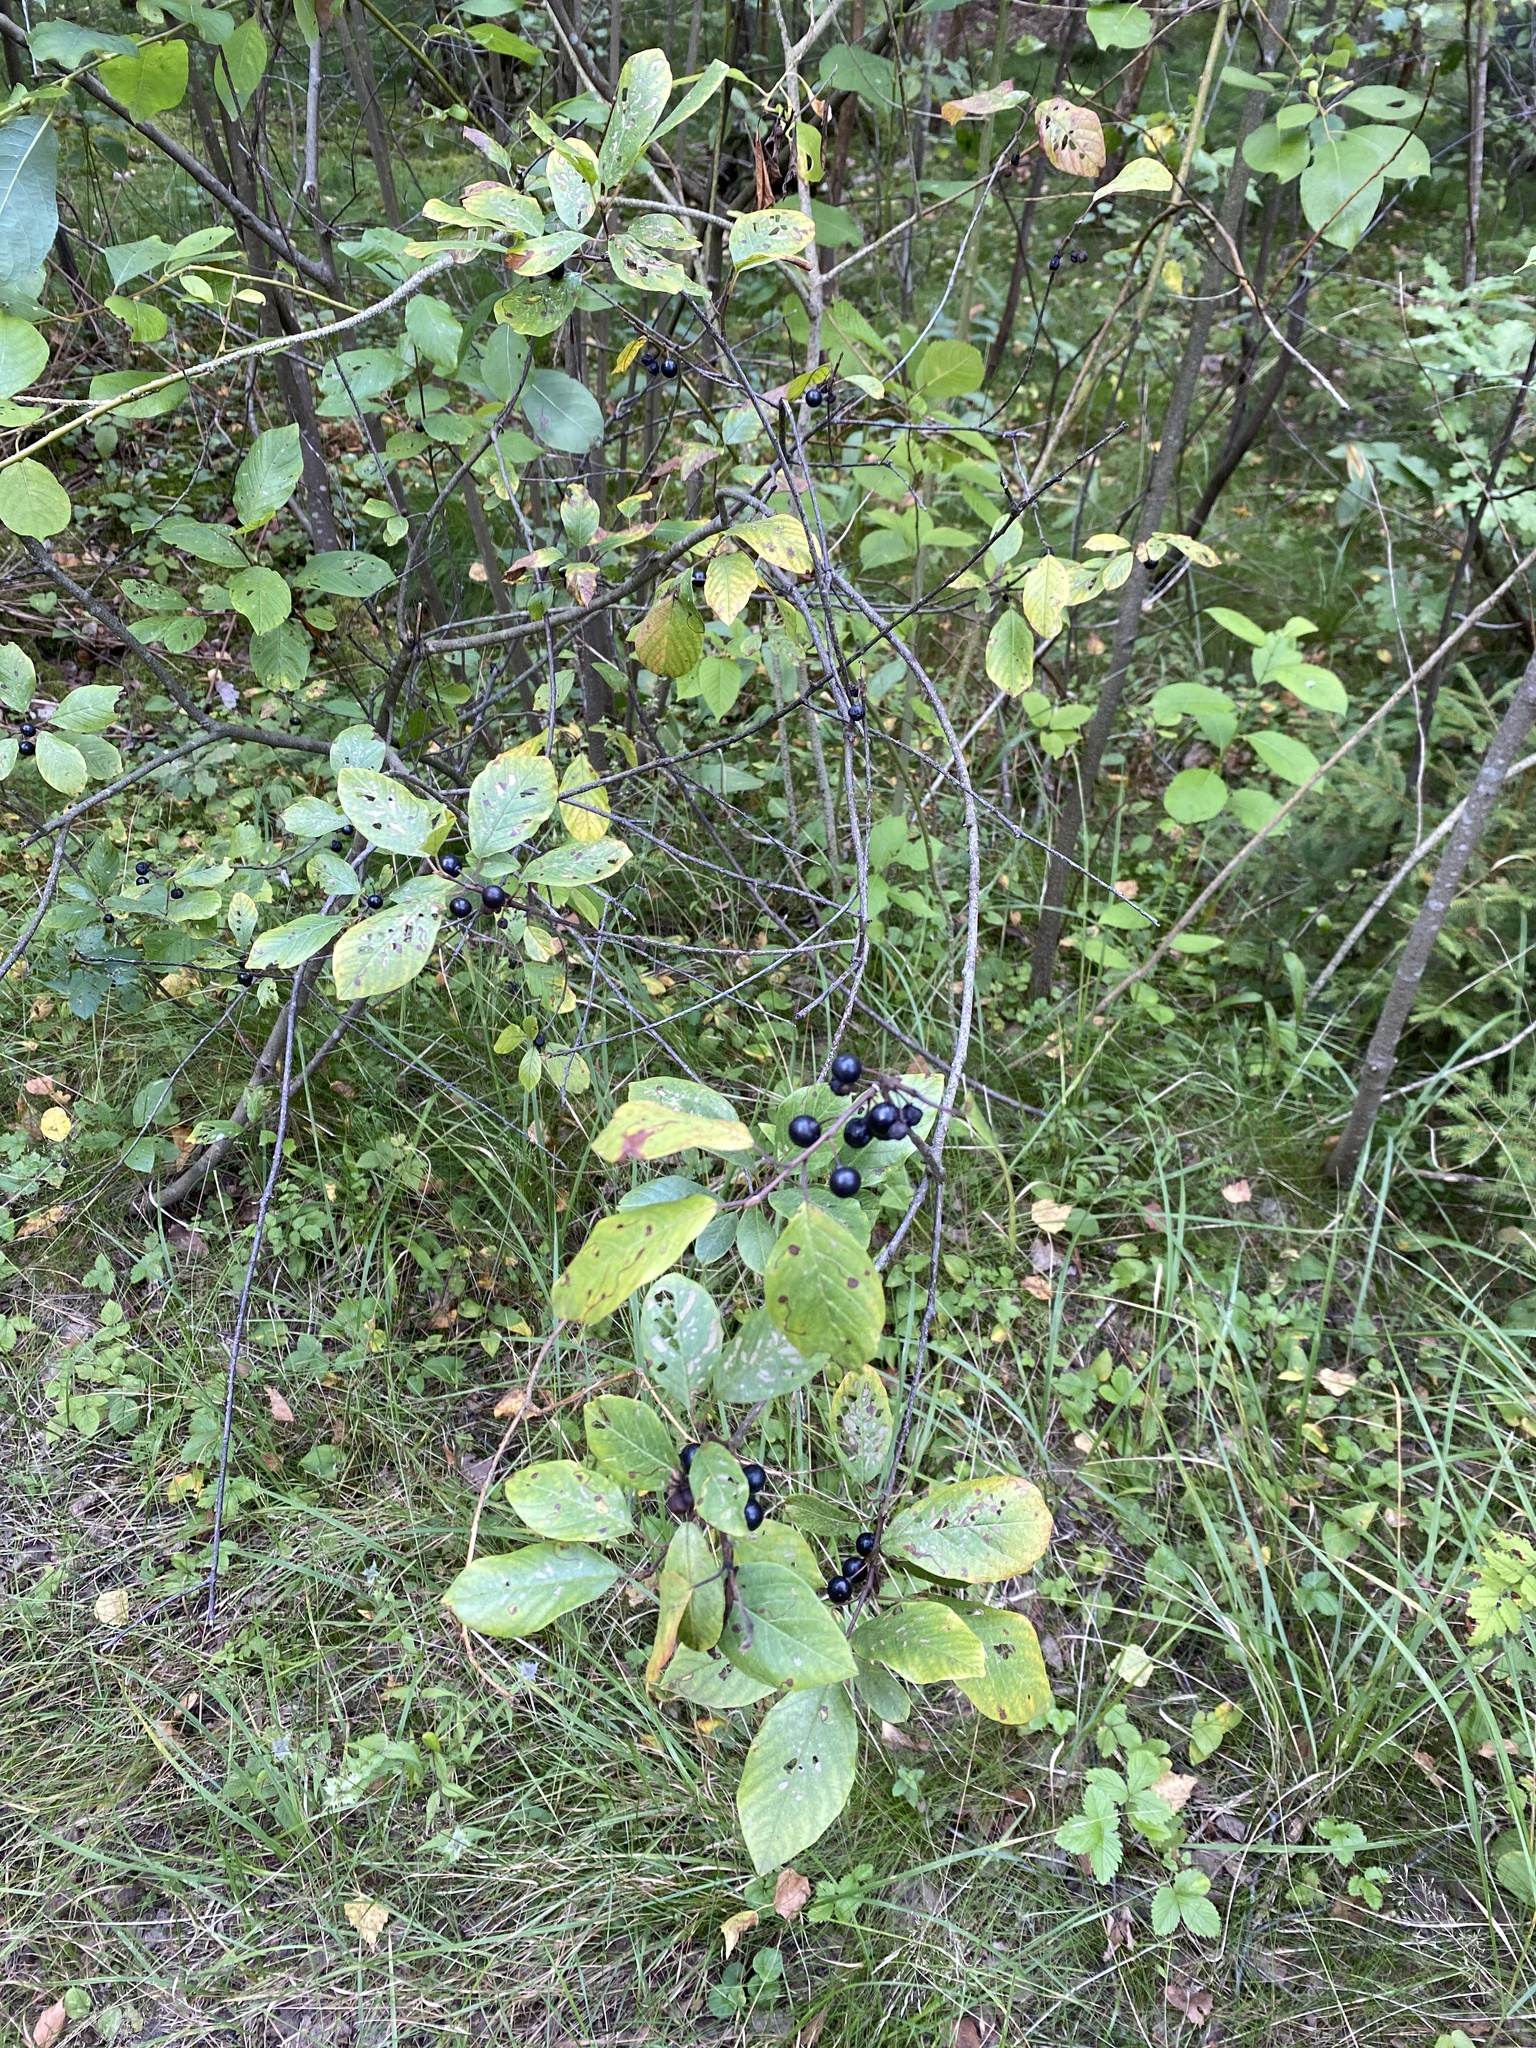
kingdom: Plantae
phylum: Tracheophyta
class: Magnoliopsida
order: Rosales
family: Rhamnaceae
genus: Frangula
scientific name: Frangula alnus
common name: Alder buckthorn
